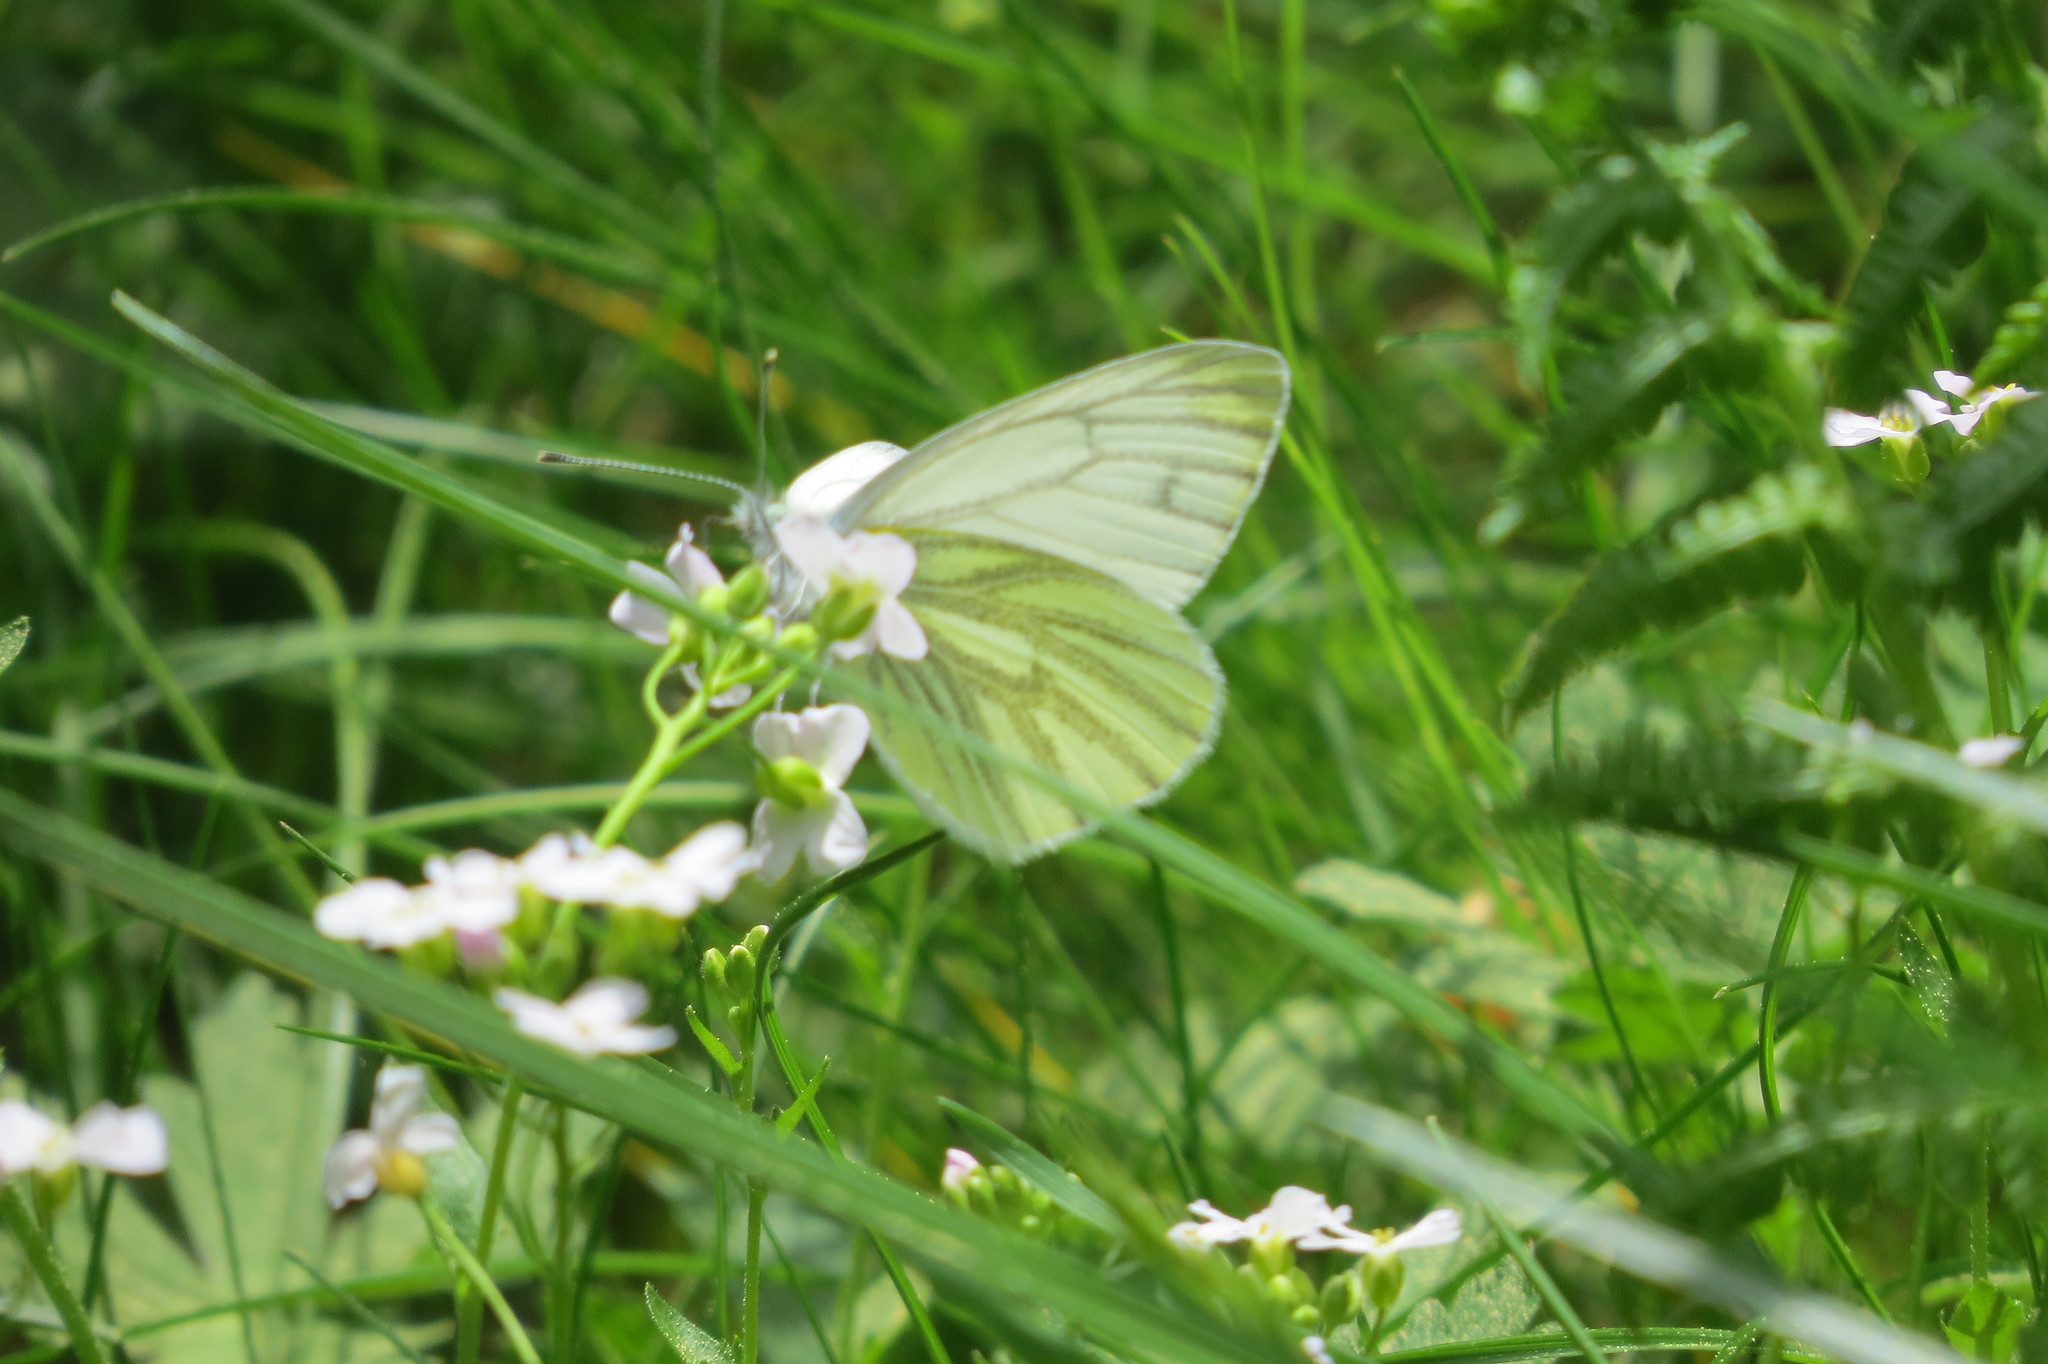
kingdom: Animalia
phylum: Arthropoda
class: Insecta
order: Lepidoptera
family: Pieridae
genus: Pieris
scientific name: Pieris napi
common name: Green-veined white
